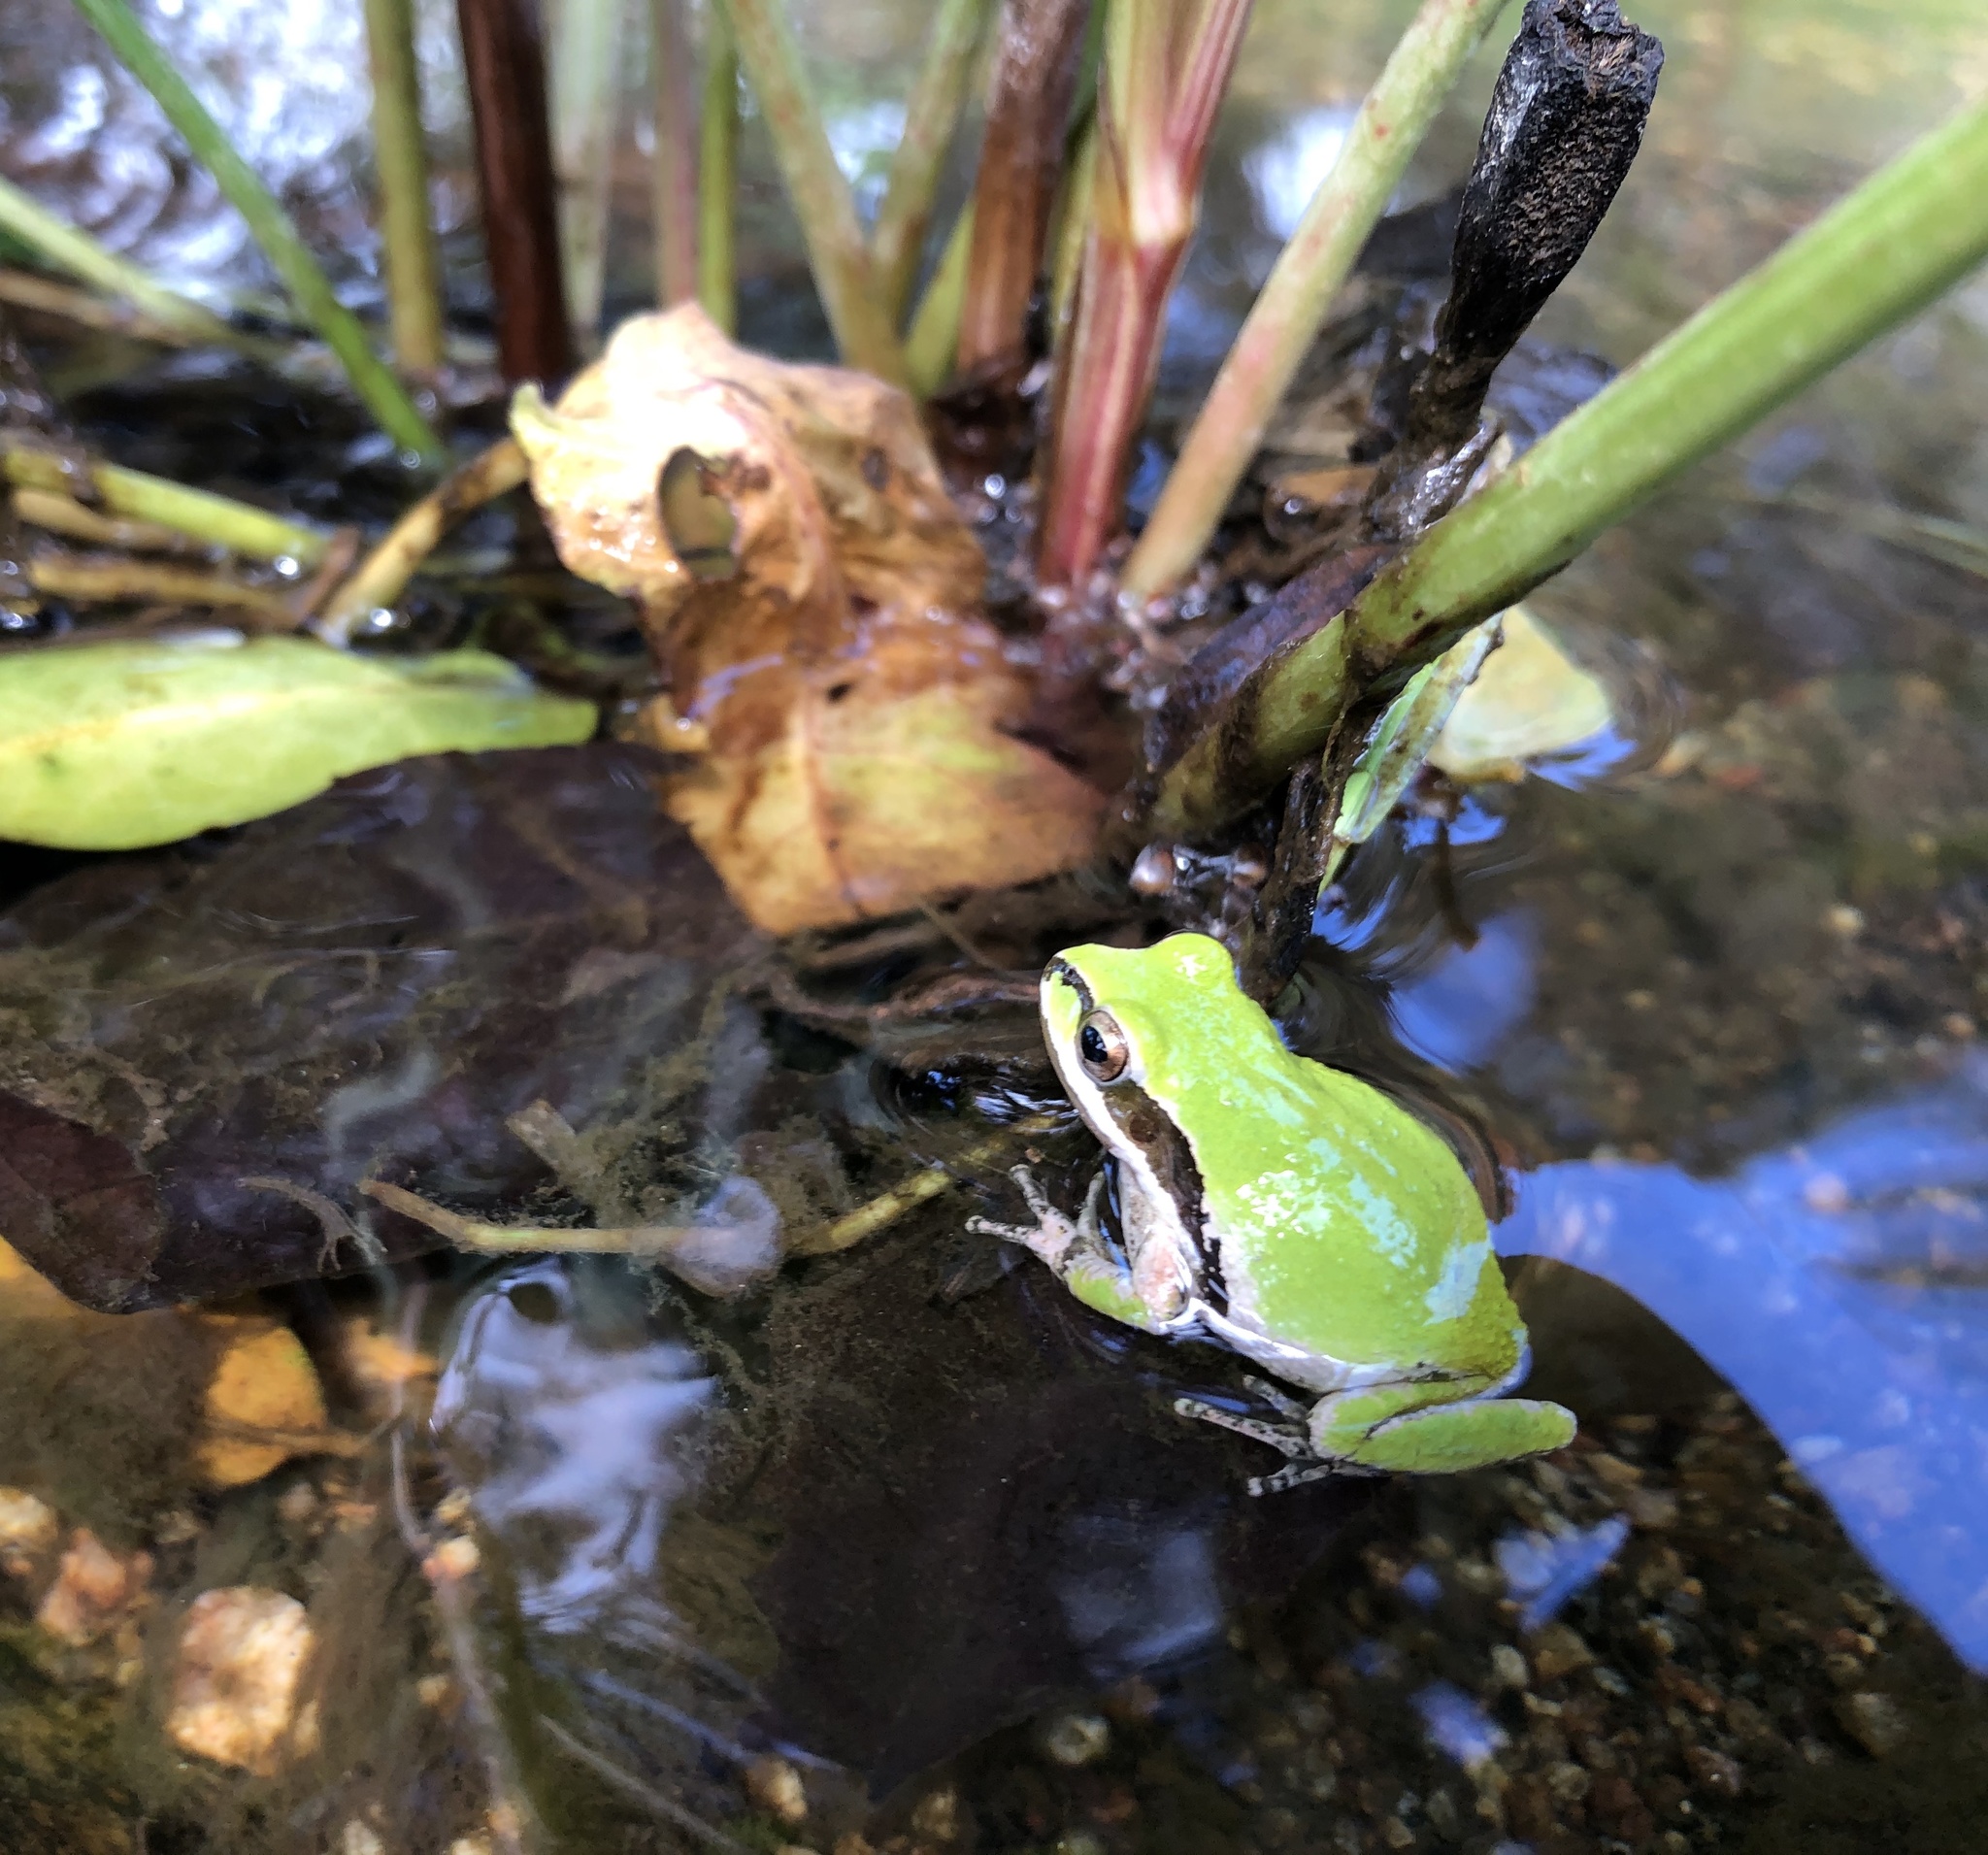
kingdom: Animalia
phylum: Chordata
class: Amphibia
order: Anura
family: Hylidae
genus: Pseudacris
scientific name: Pseudacris regilla
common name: Pacific chorus frog
